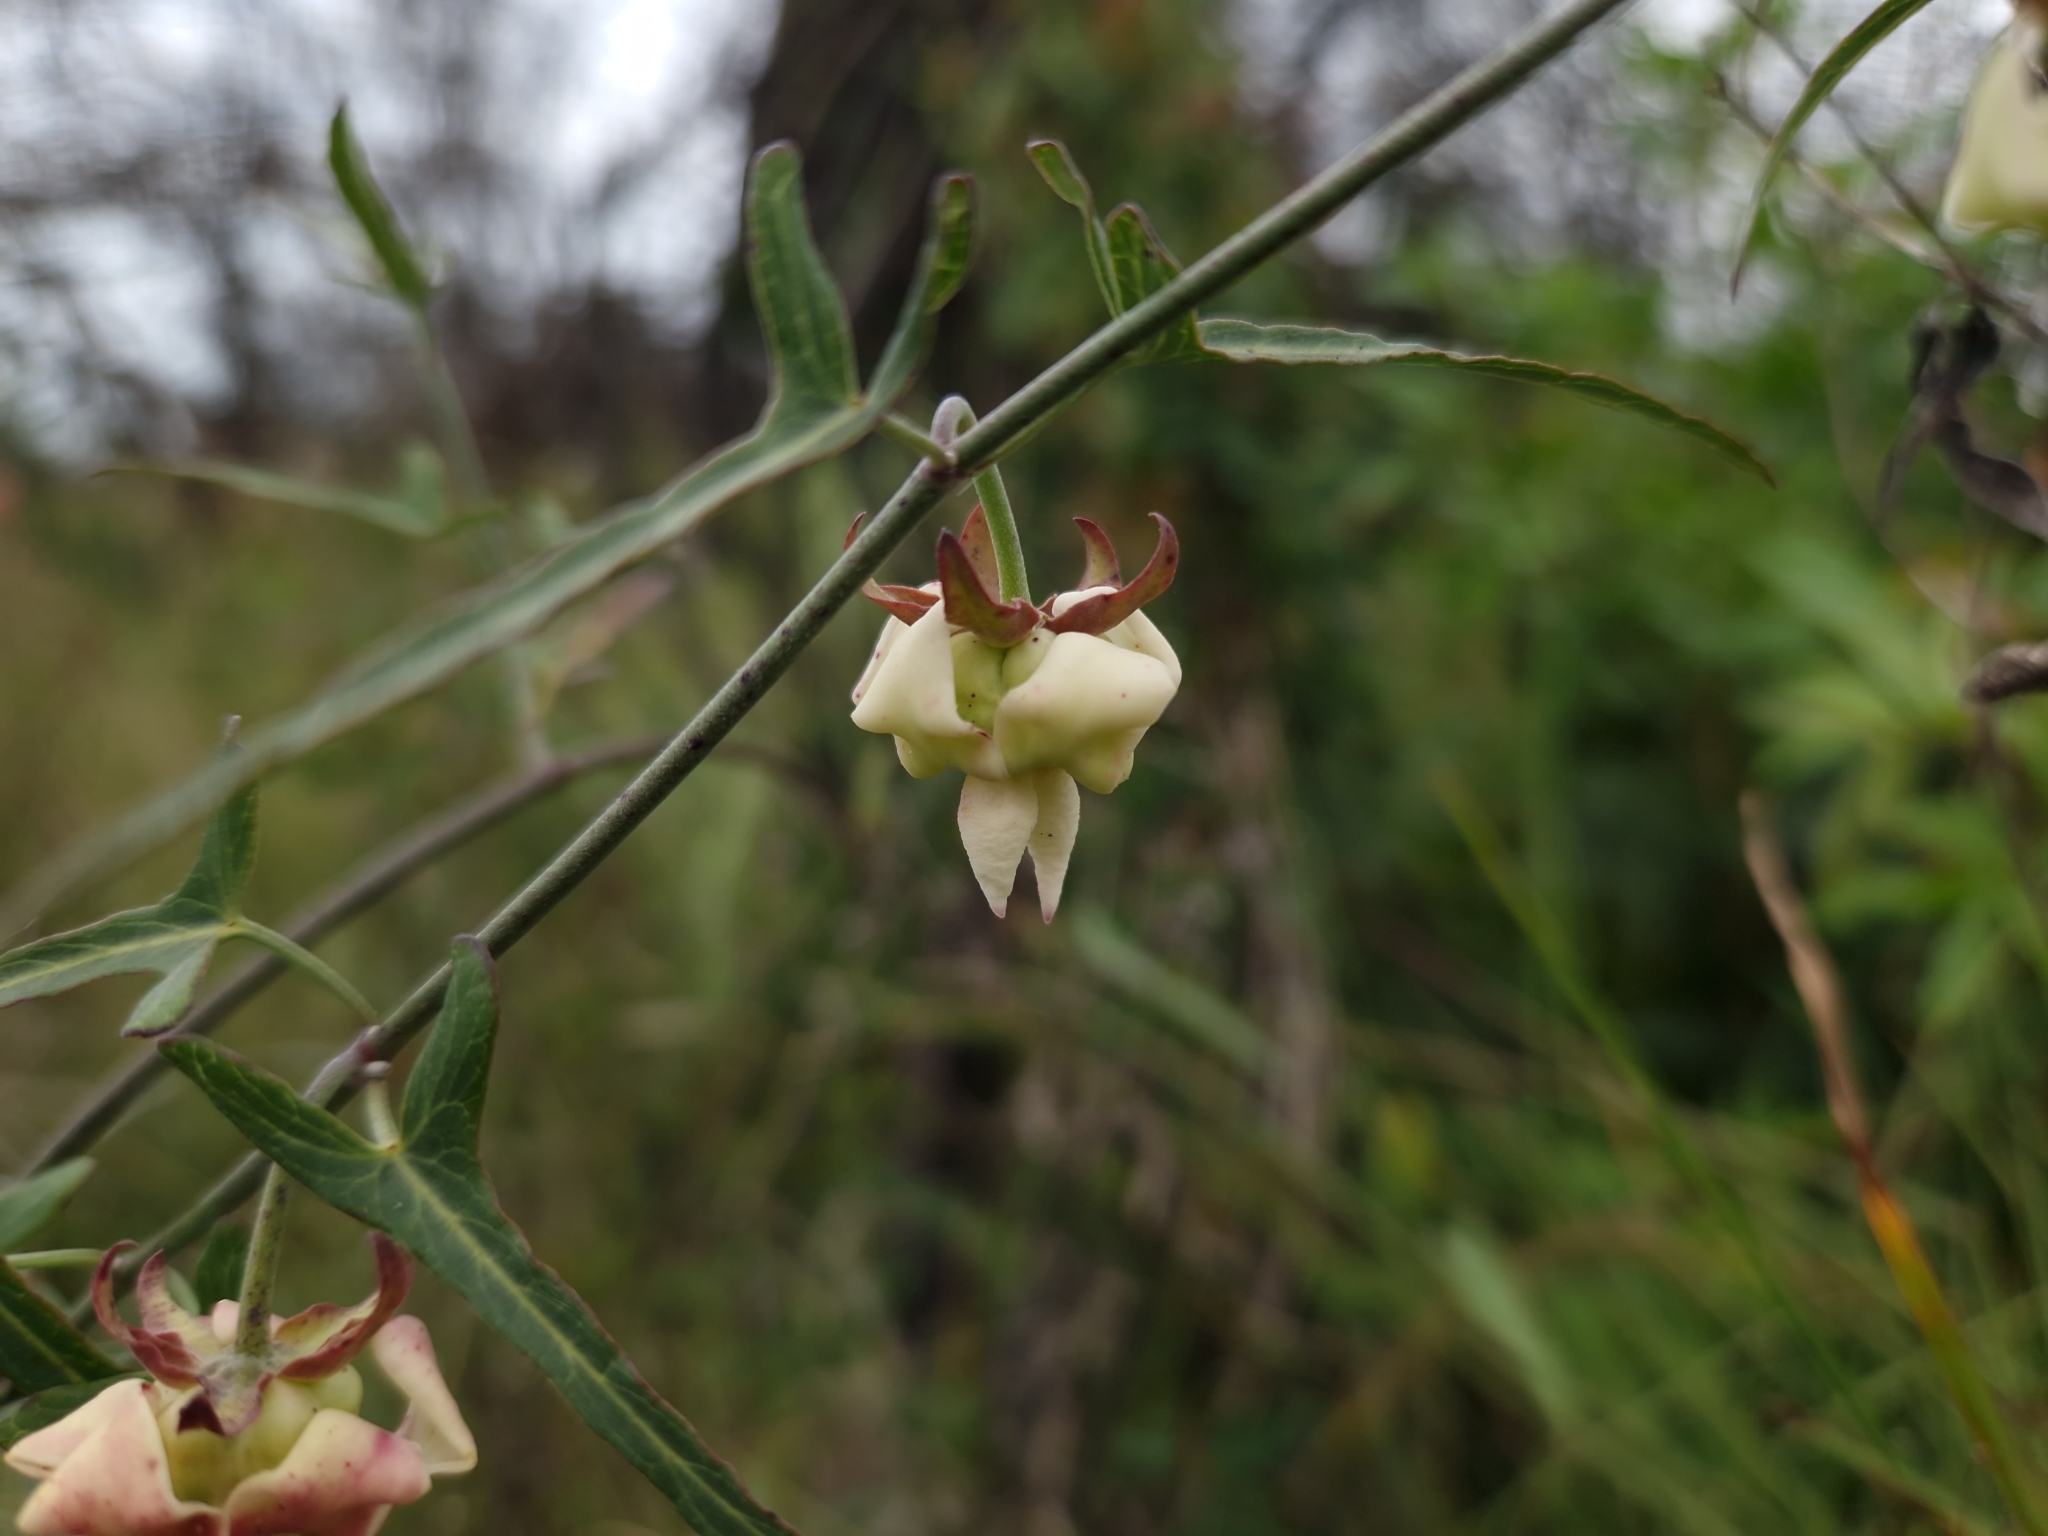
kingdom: Plantae
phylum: Tracheophyta
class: Magnoliopsida
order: Gentianales
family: Apocynaceae
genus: Araujia
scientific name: Araujia angustifolia
